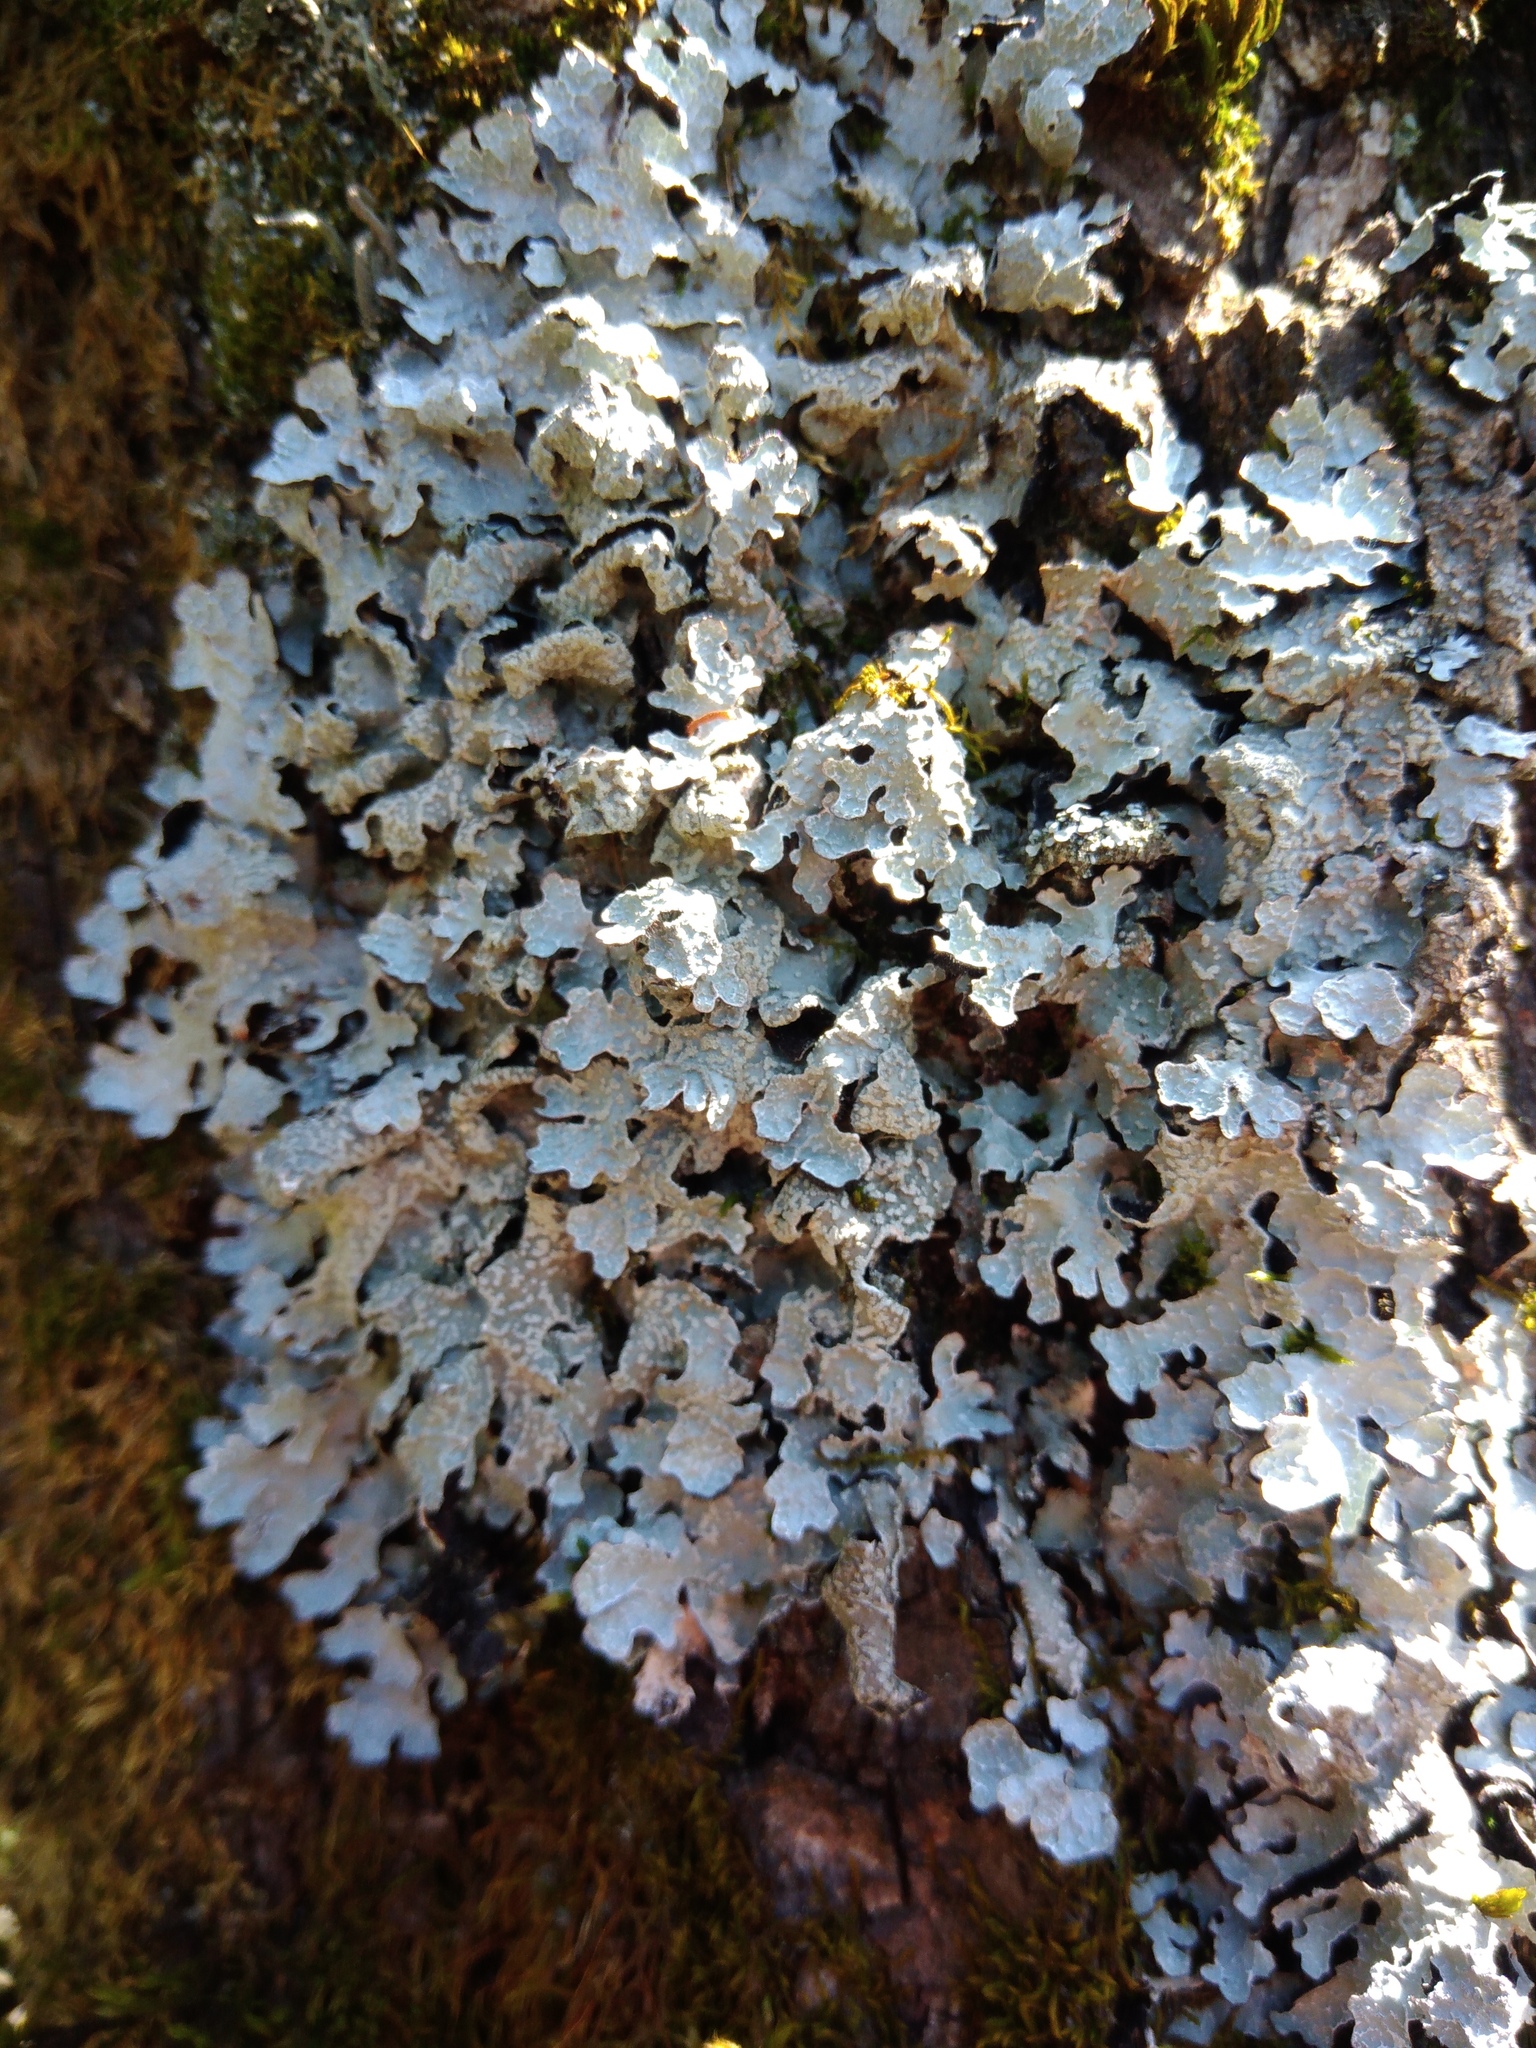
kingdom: Fungi
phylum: Ascomycota
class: Lecanoromycetes
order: Lecanorales
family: Parmeliaceae
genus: Parmelia
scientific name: Parmelia sulcata
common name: Netted shield lichen
